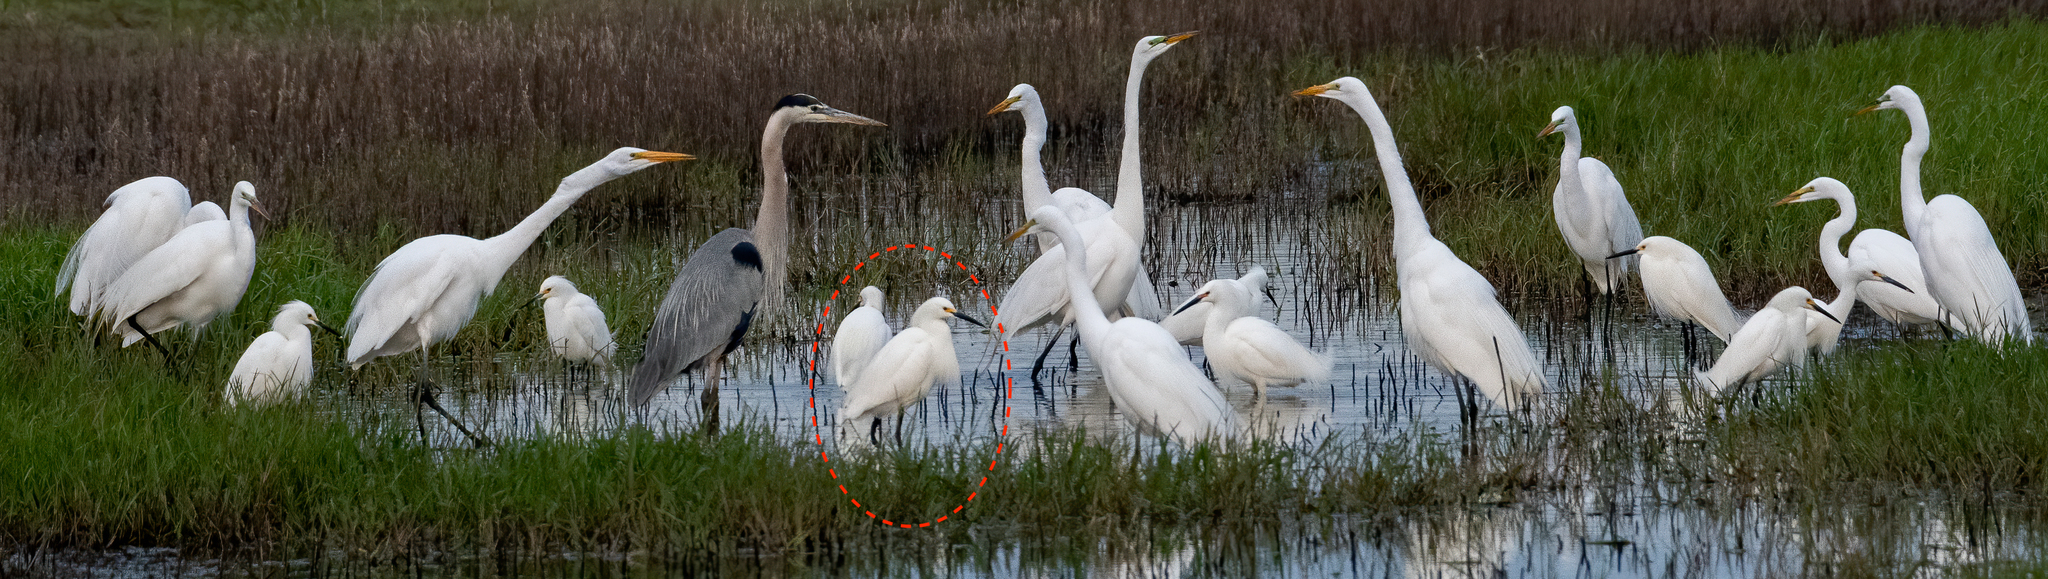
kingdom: Animalia
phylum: Chordata
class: Aves
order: Pelecaniformes
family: Ardeidae
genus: Egretta
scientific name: Egretta thula
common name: Snowy egret
